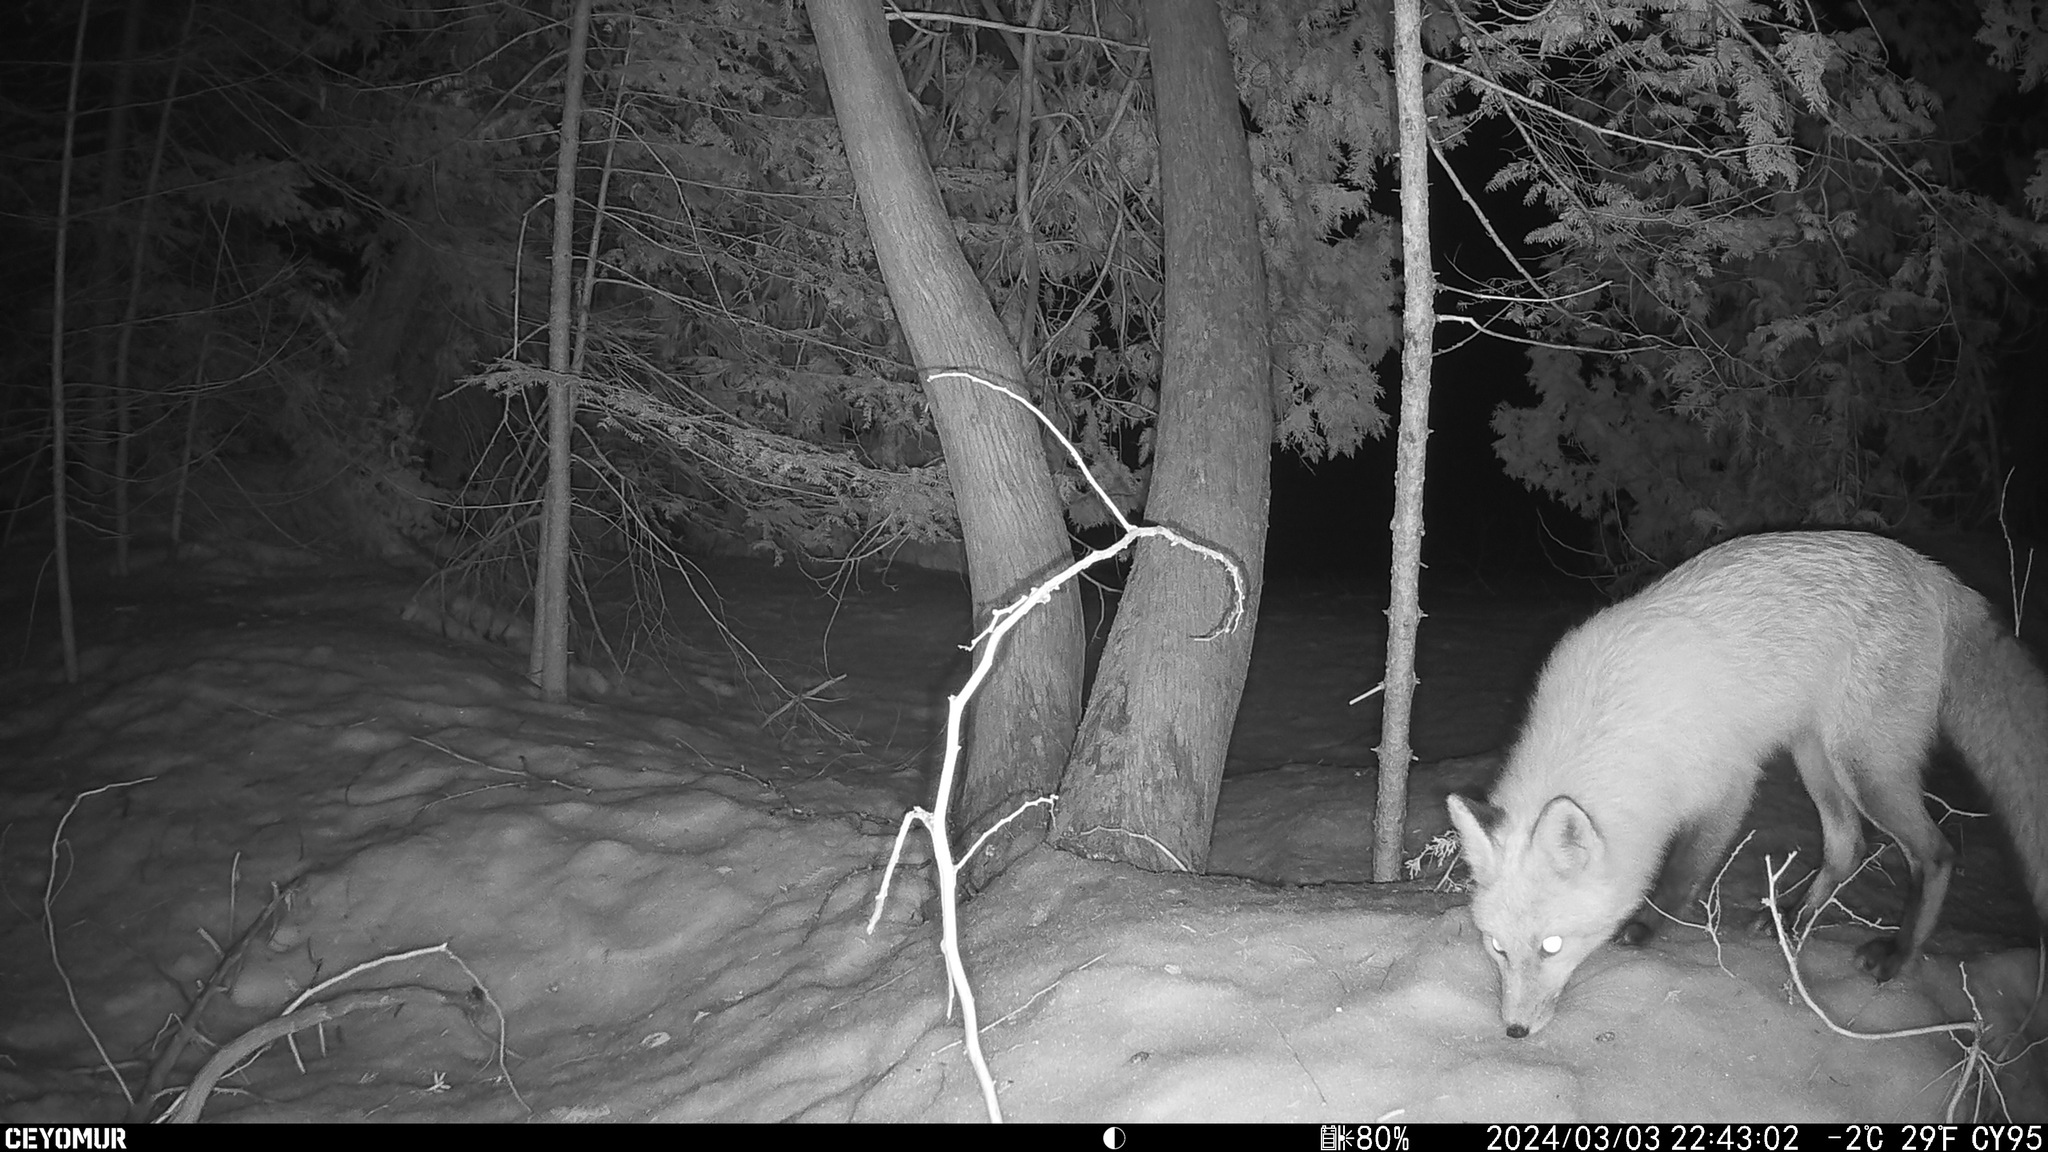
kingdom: Animalia
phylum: Chordata
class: Mammalia
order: Carnivora
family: Canidae
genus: Vulpes
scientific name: Vulpes vulpes
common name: Red fox
